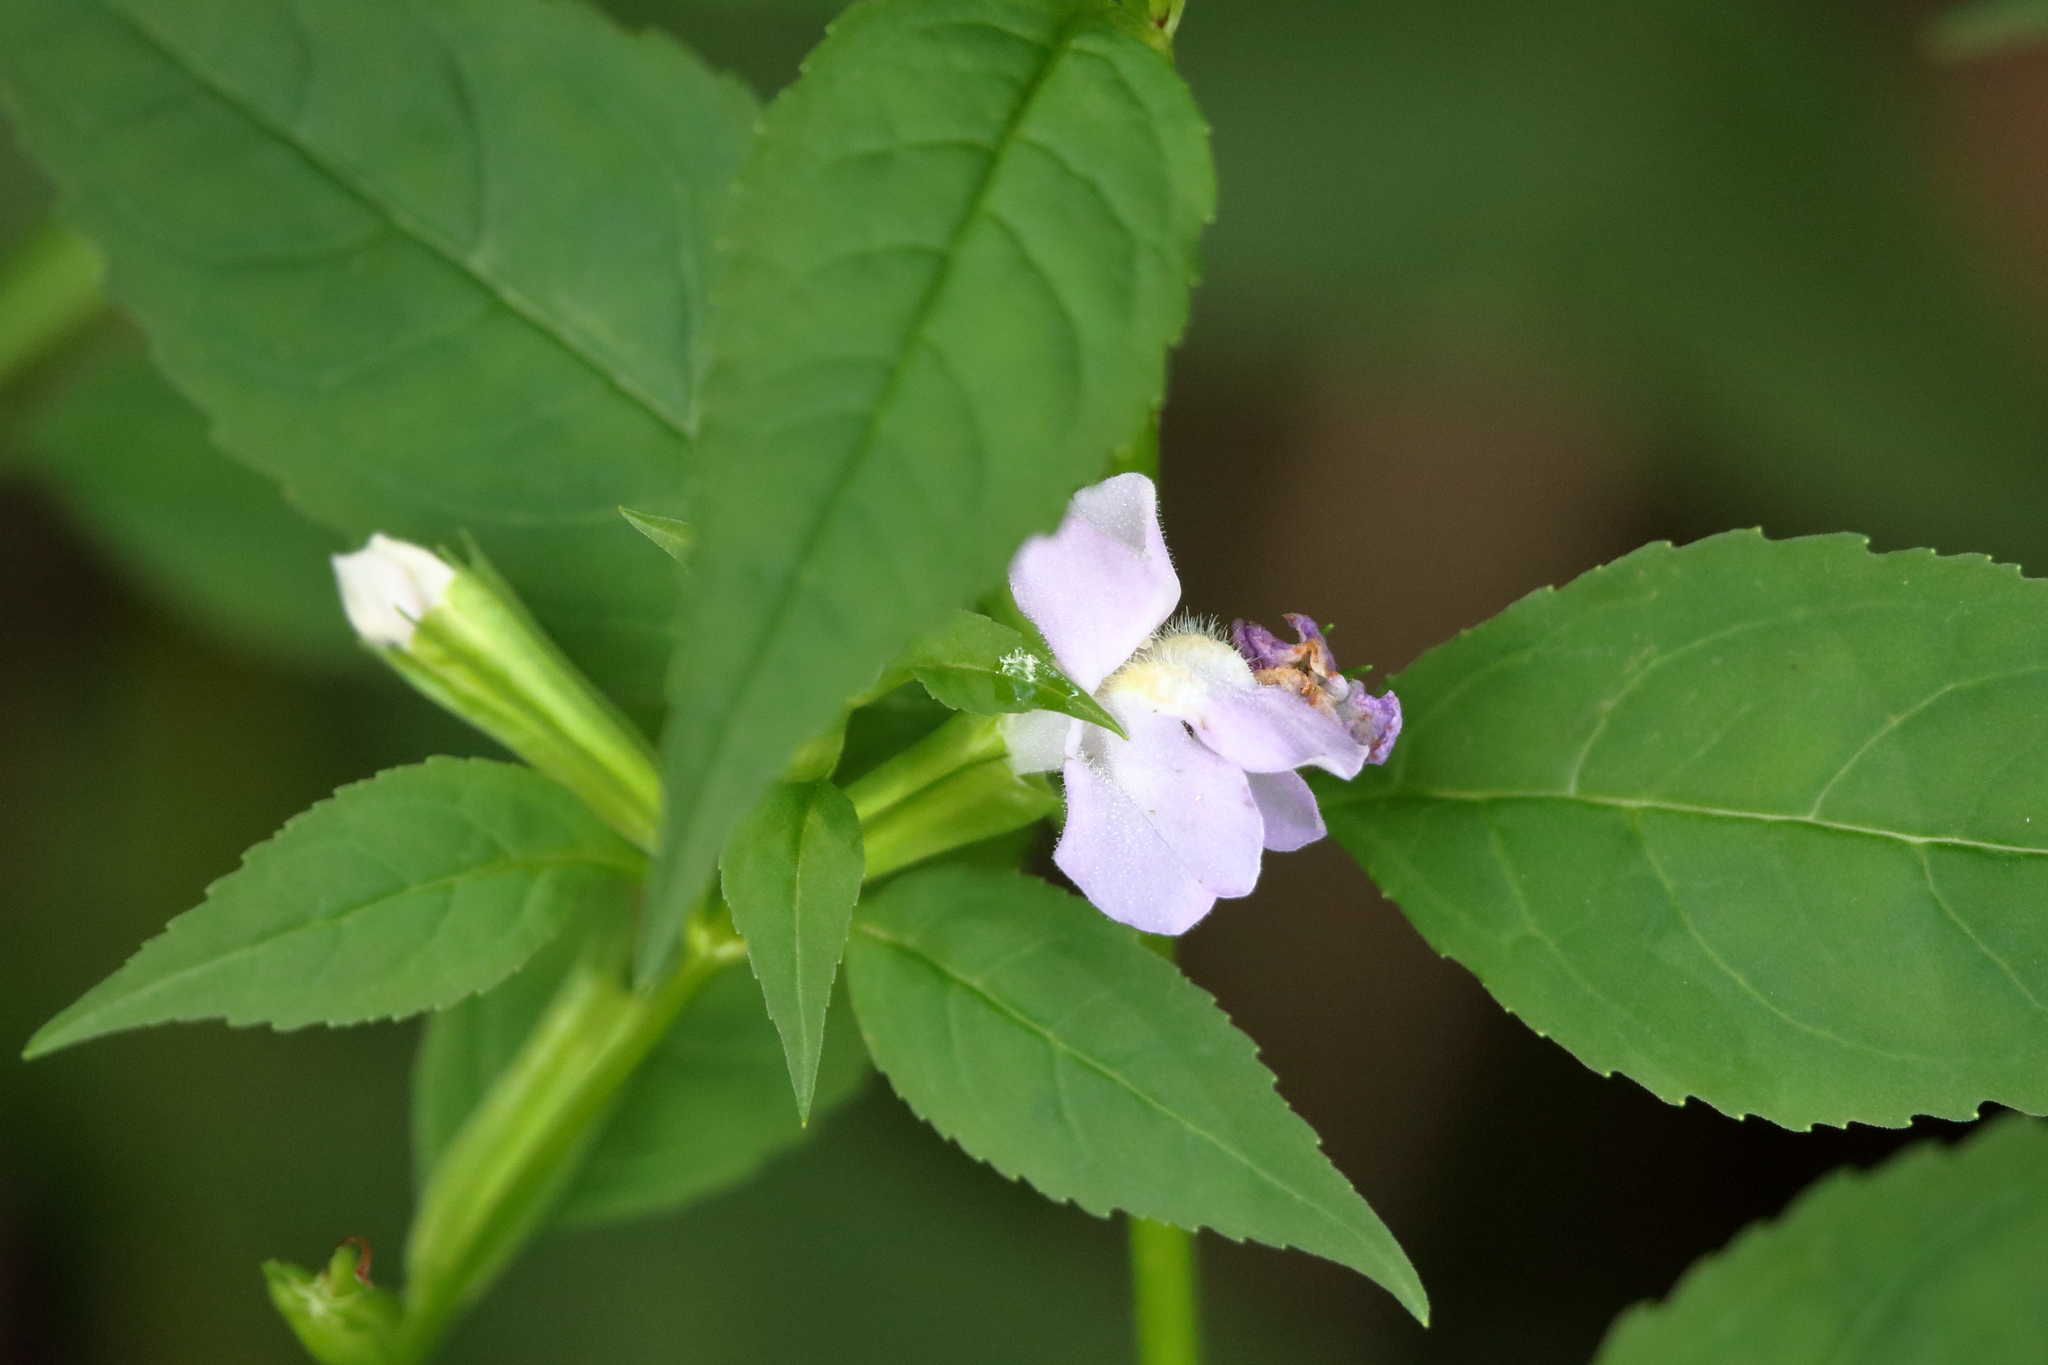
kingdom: Plantae
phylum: Tracheophyta
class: Magnoliopsida
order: Lamiales
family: Phrymaceae
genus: Mimulus
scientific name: Mimulus alatus
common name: Sharp-wing monkey-flower
